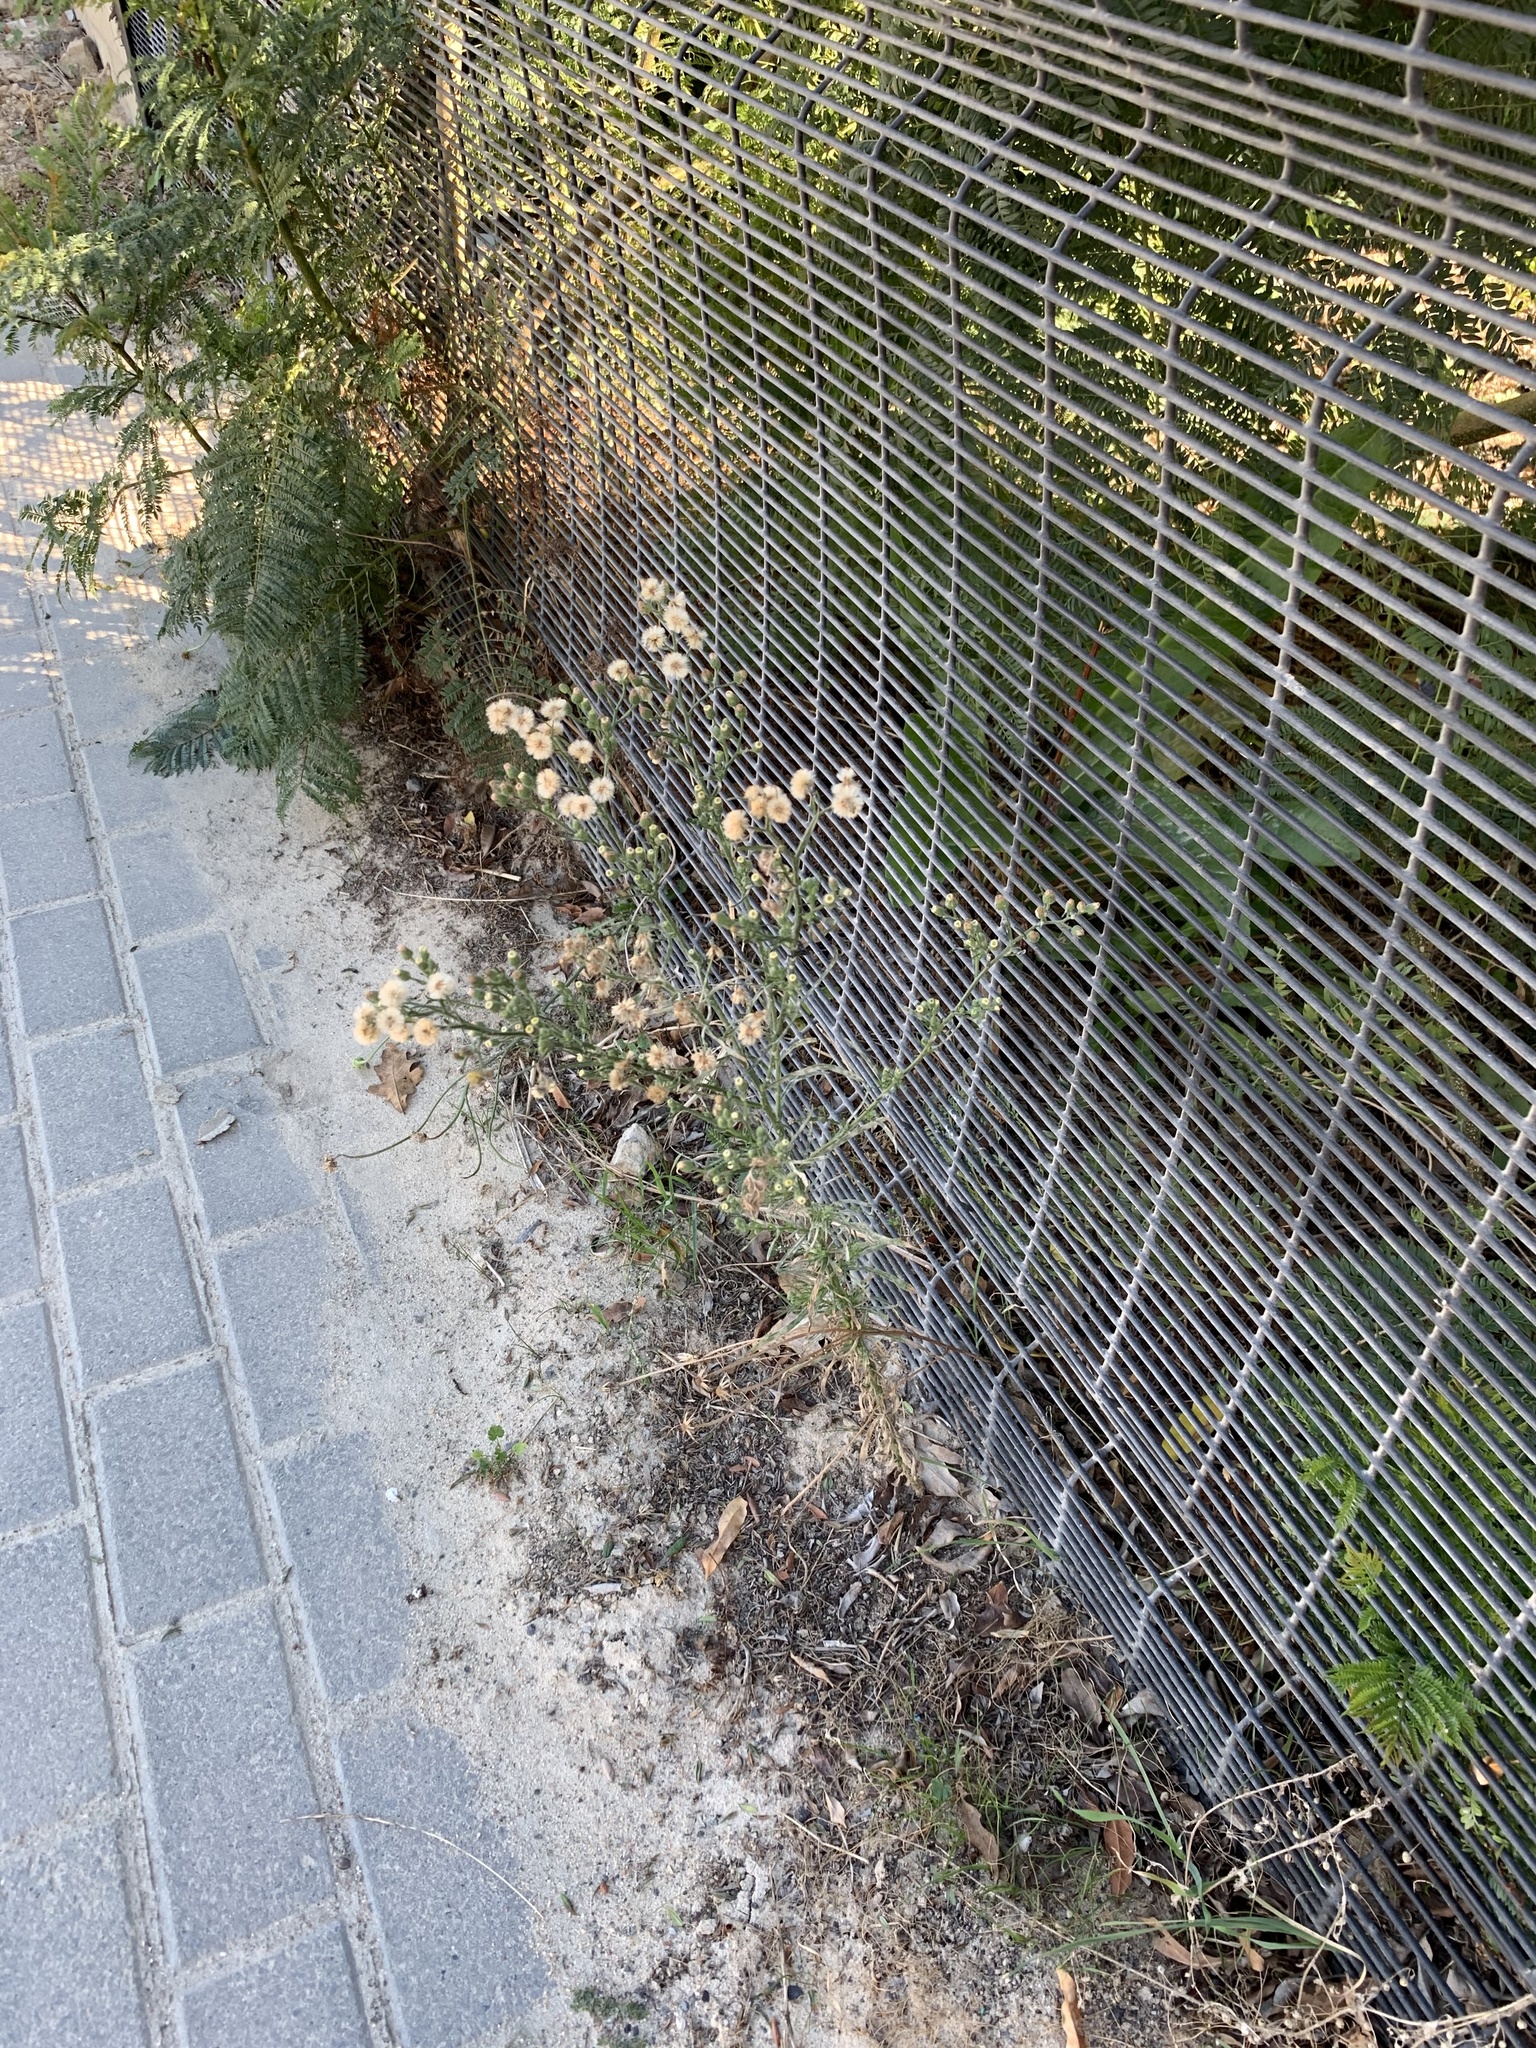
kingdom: Plantae
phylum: Tracheophyta
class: Magnoliopsida
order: Asterales
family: Asteraceae
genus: Erigeron
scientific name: Erigeron bonariensis
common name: Argentine fleabane
